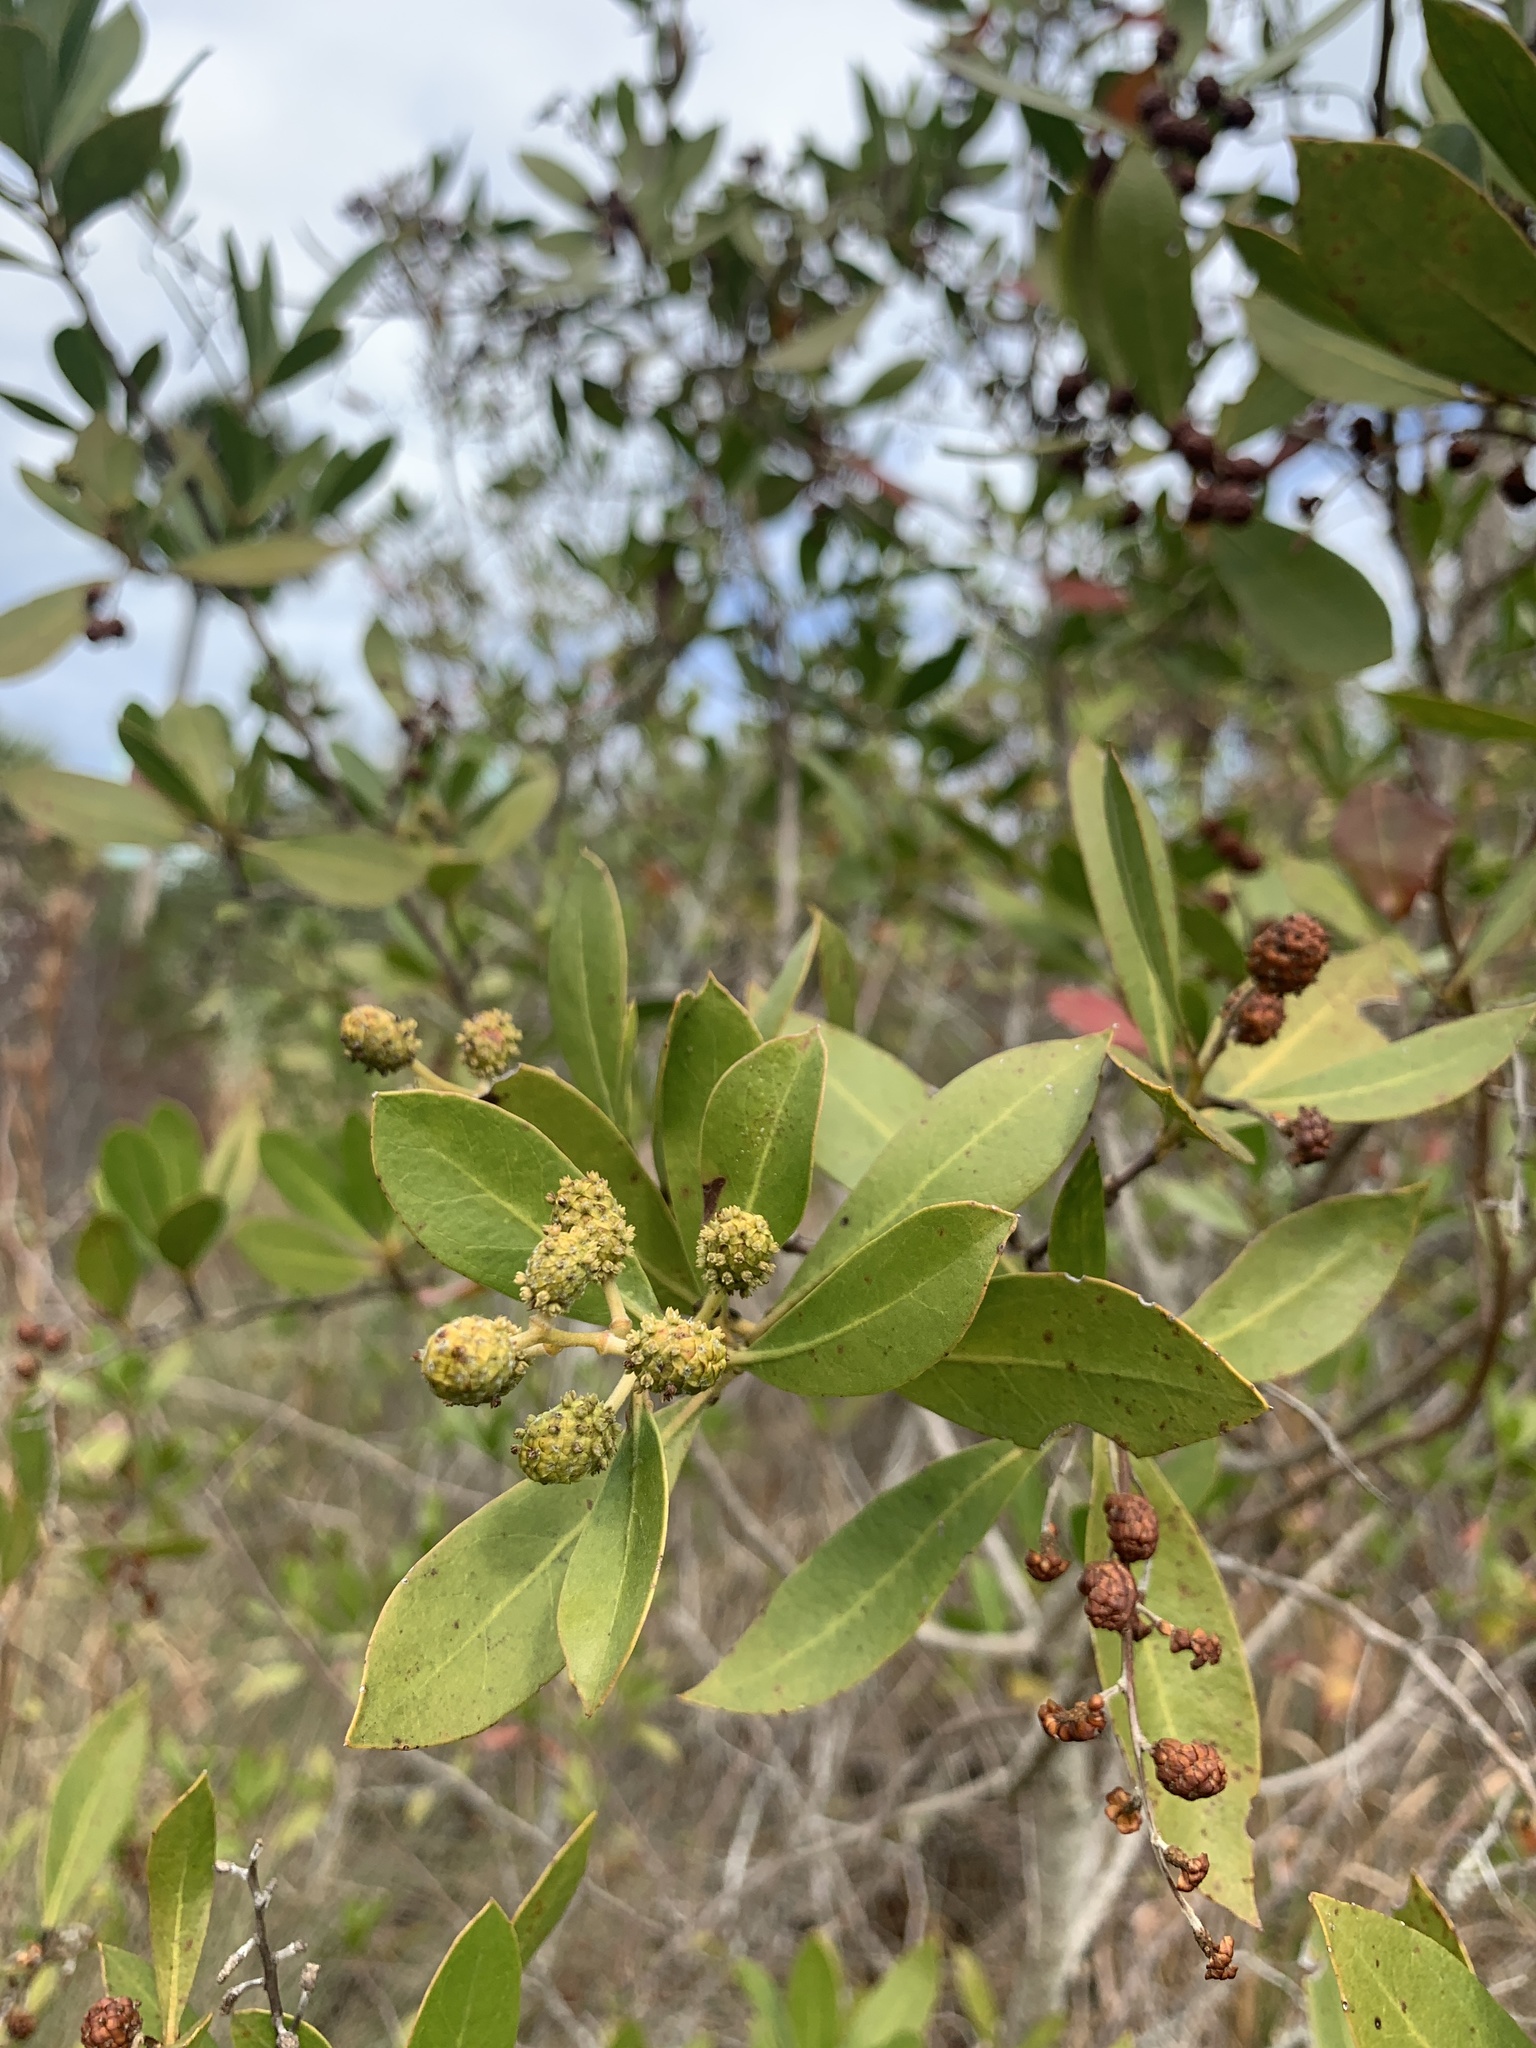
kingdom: Plantae
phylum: Tracheophyta
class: Magnoliopsida
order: Myrtales
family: Combretaceae
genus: Conocarpus
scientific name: Conocarpus erectus
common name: Button mangrove
